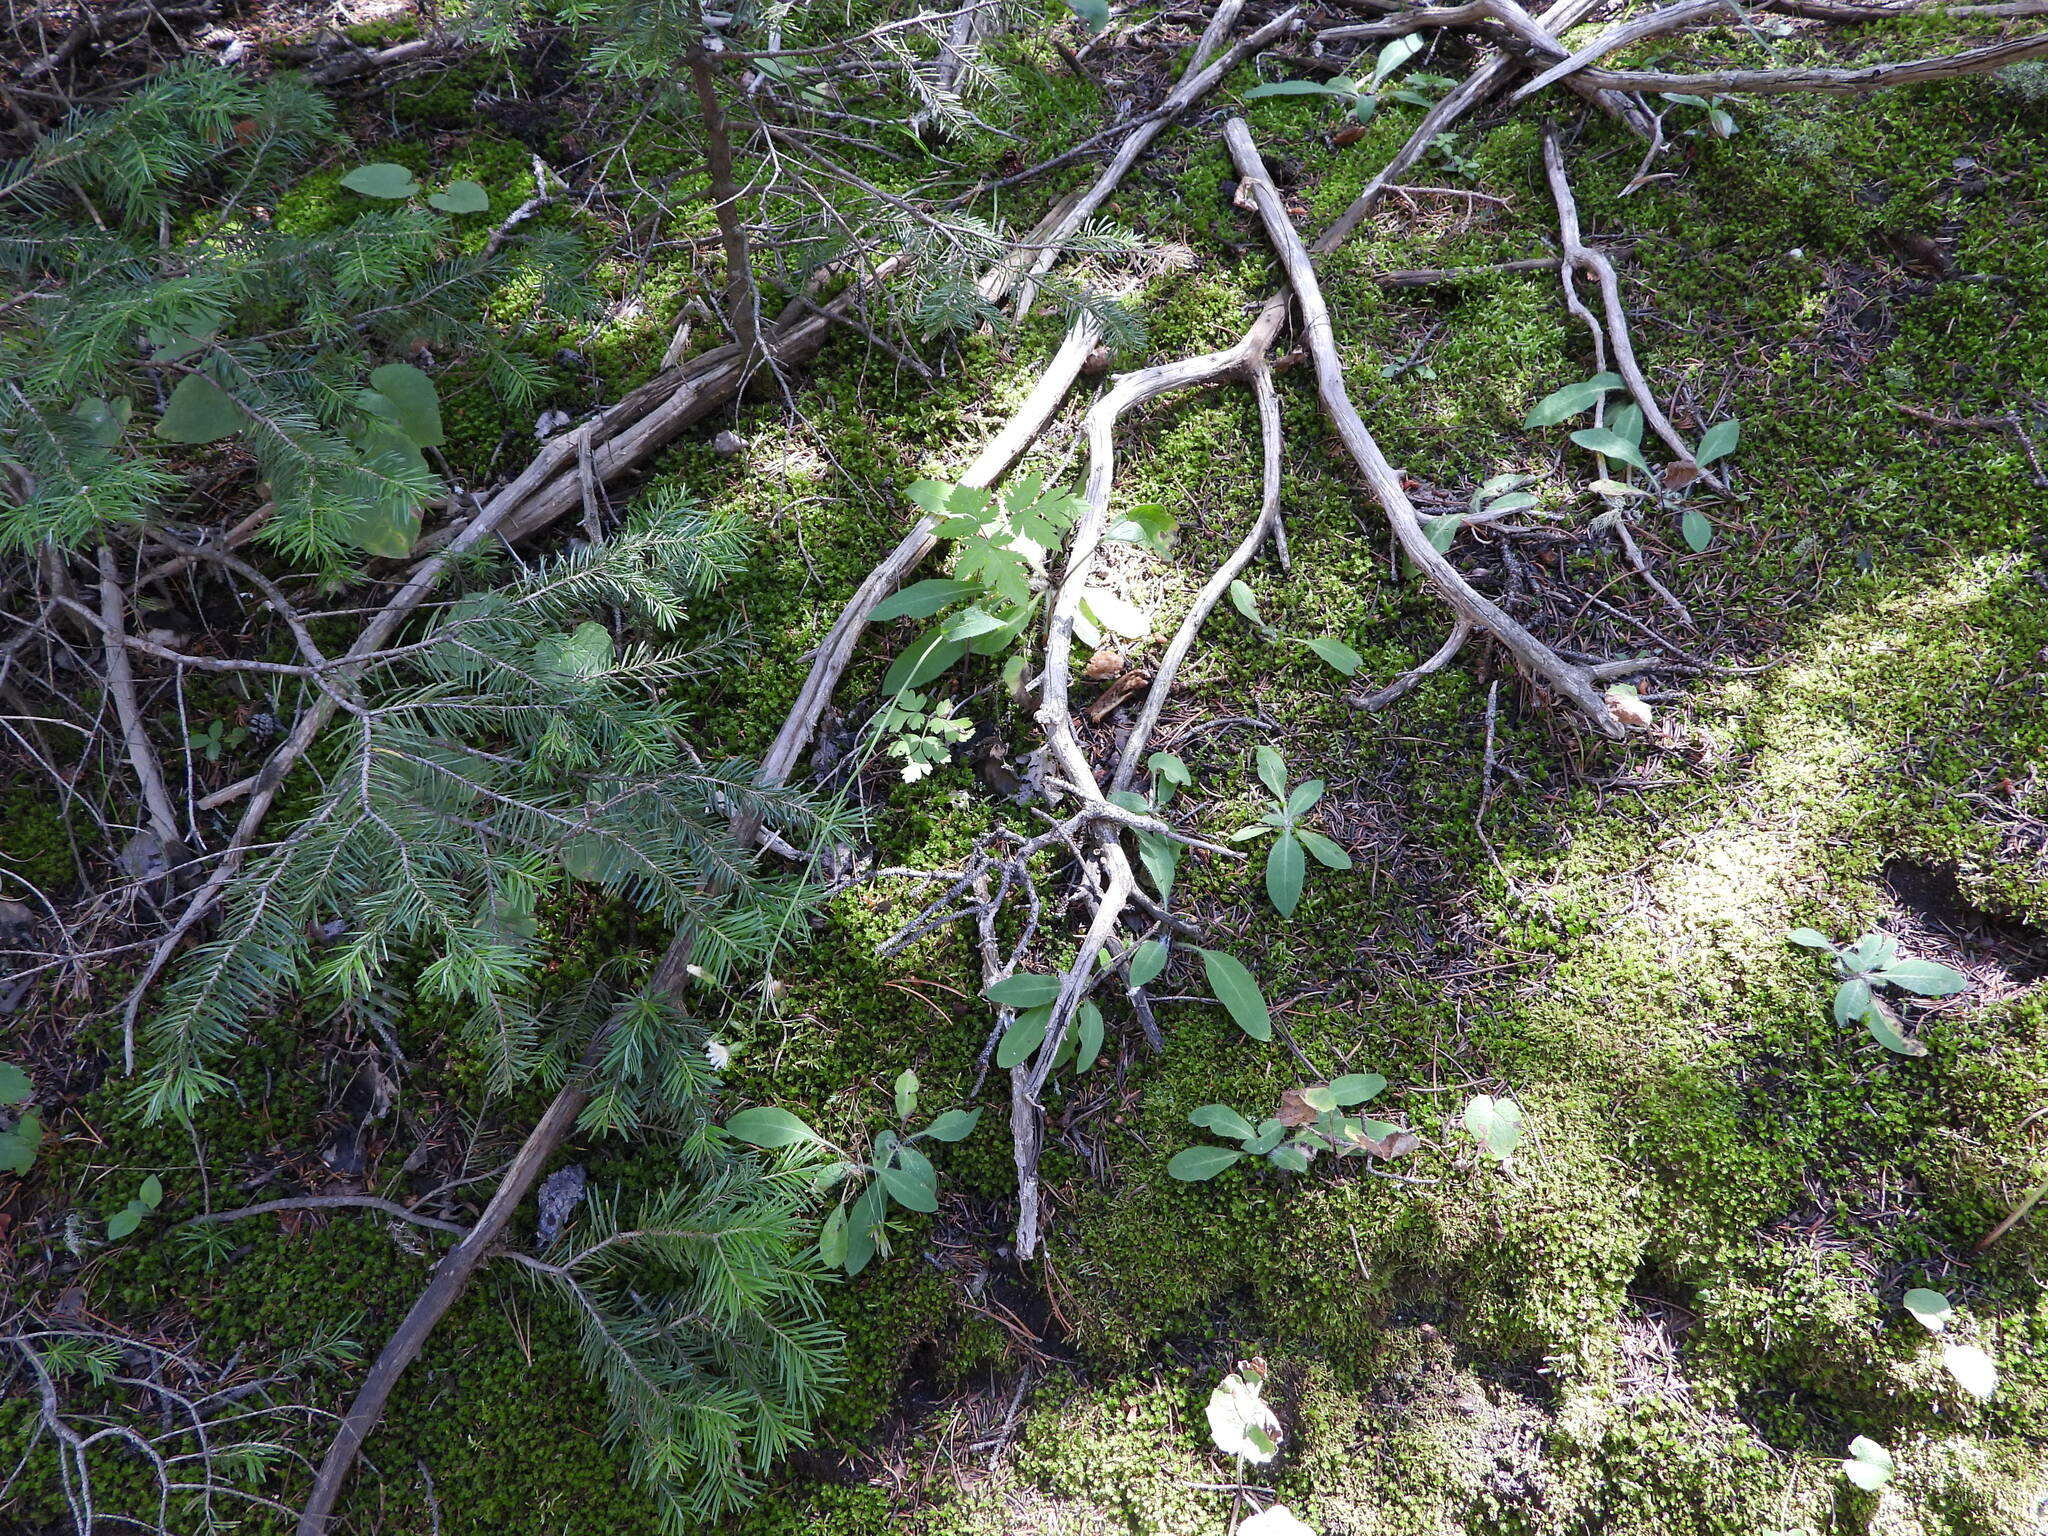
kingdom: Plantae
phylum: Tracheophyta
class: Magnoliopsida
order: Asterales
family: Asteraceae
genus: Hieracium
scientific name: Hieracium albiflorum
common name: White hawkweed
